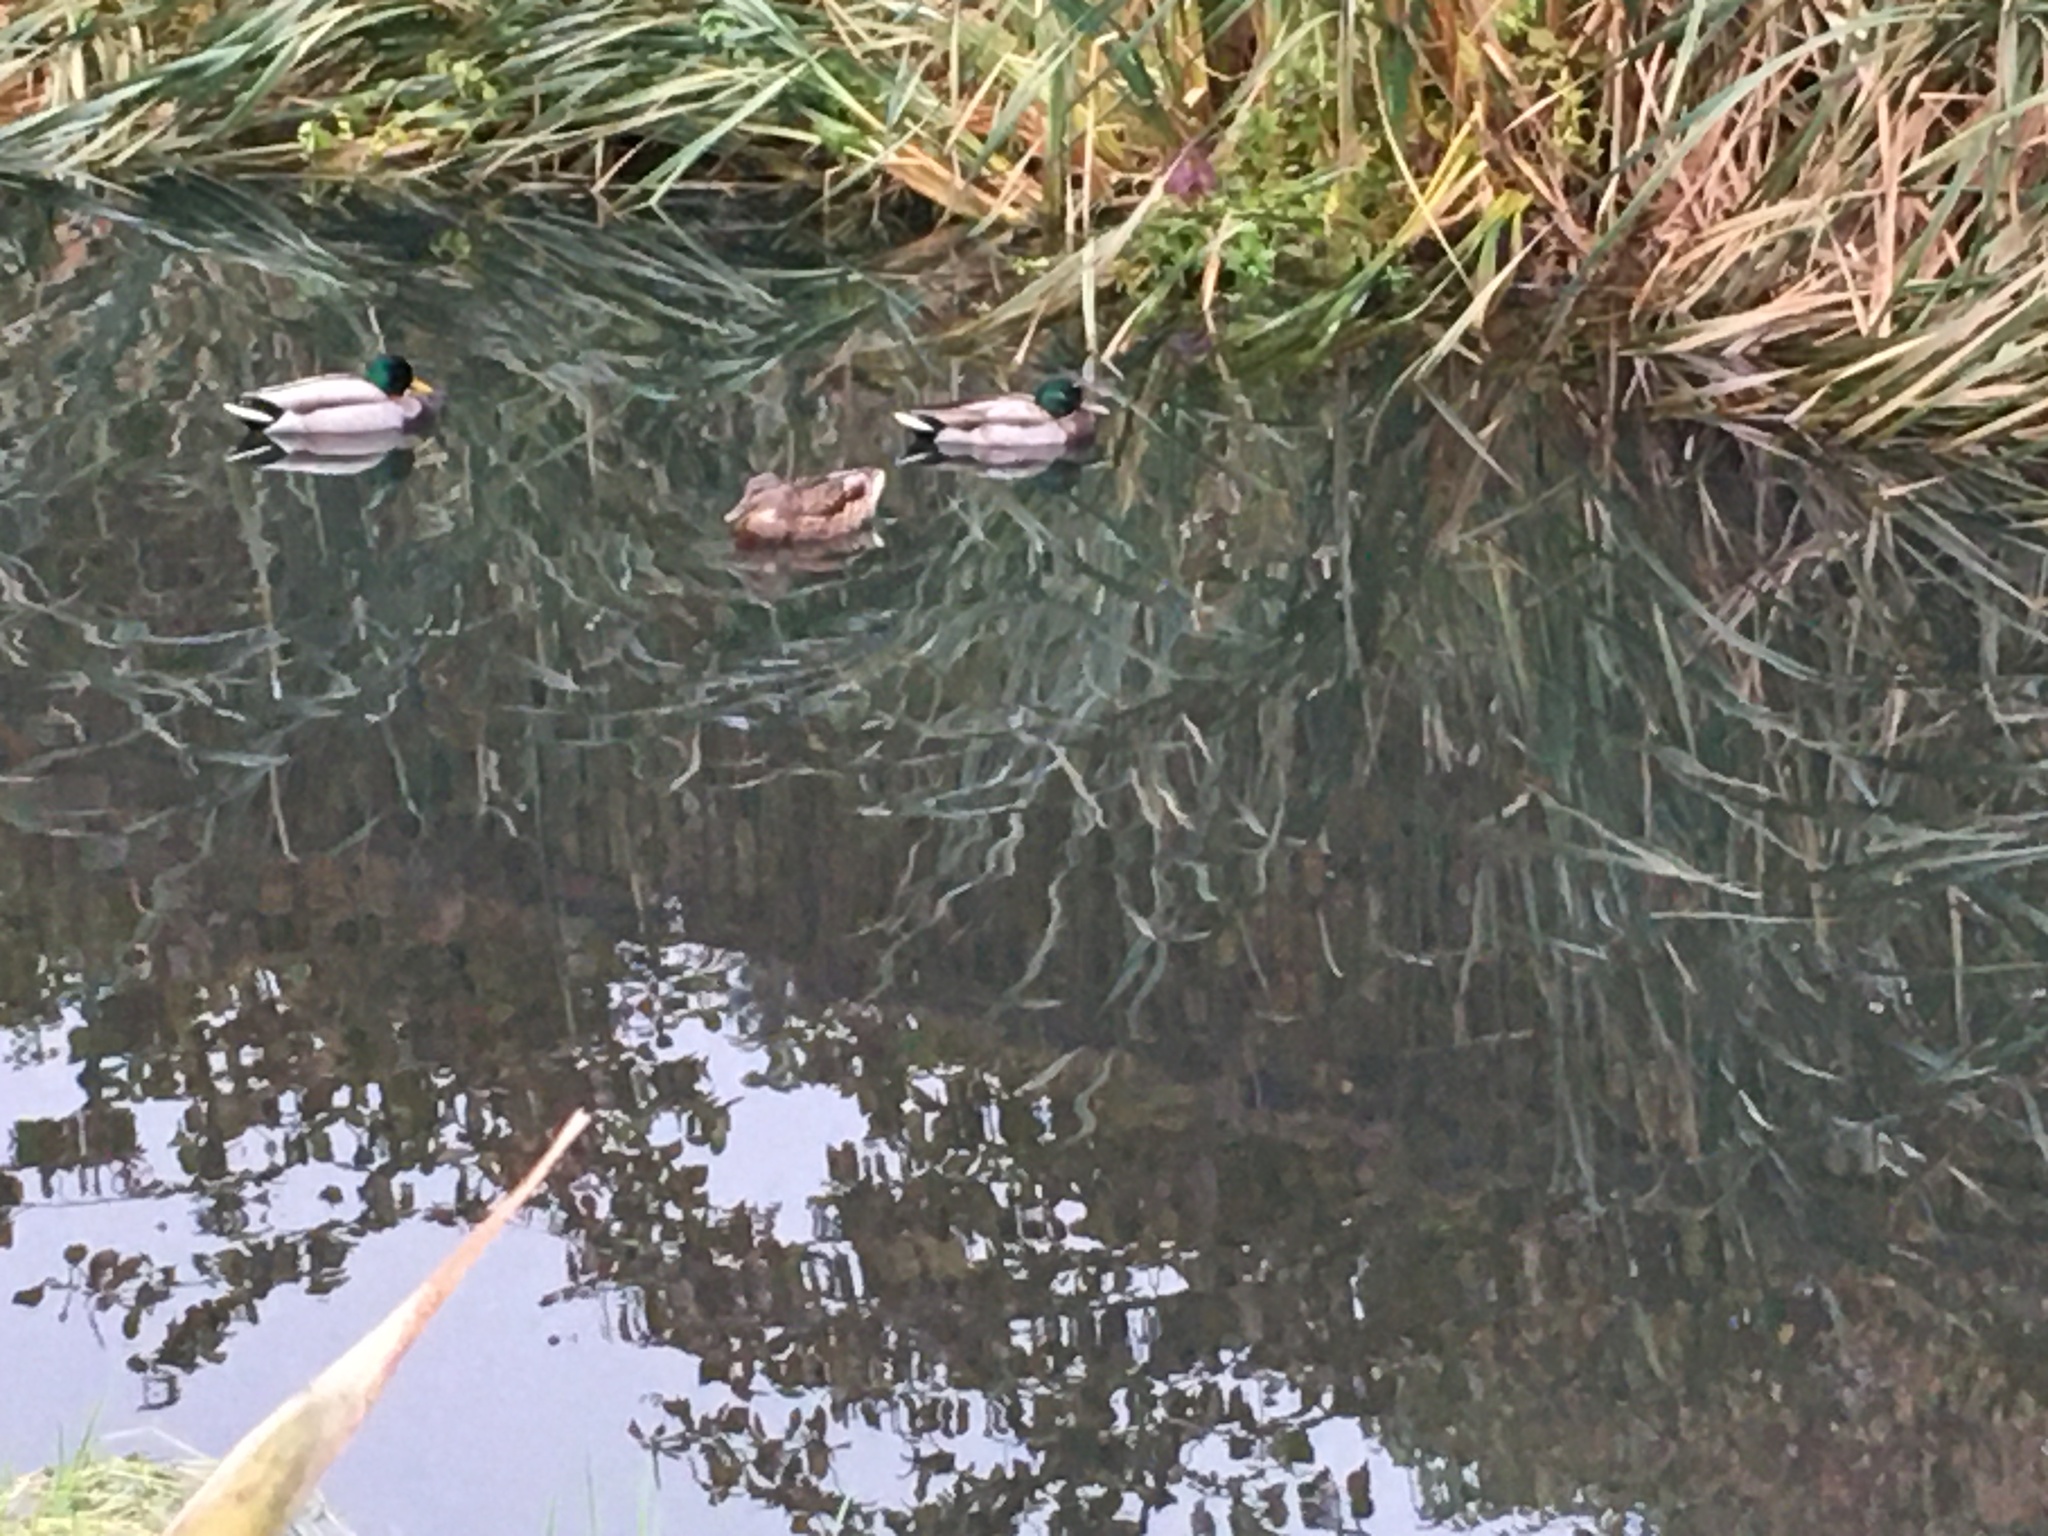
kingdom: Animalia
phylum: Chordata
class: Aves
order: Anseriformes
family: Anatidae
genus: Anas
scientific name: Anas platyrhynchos
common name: Mallard
